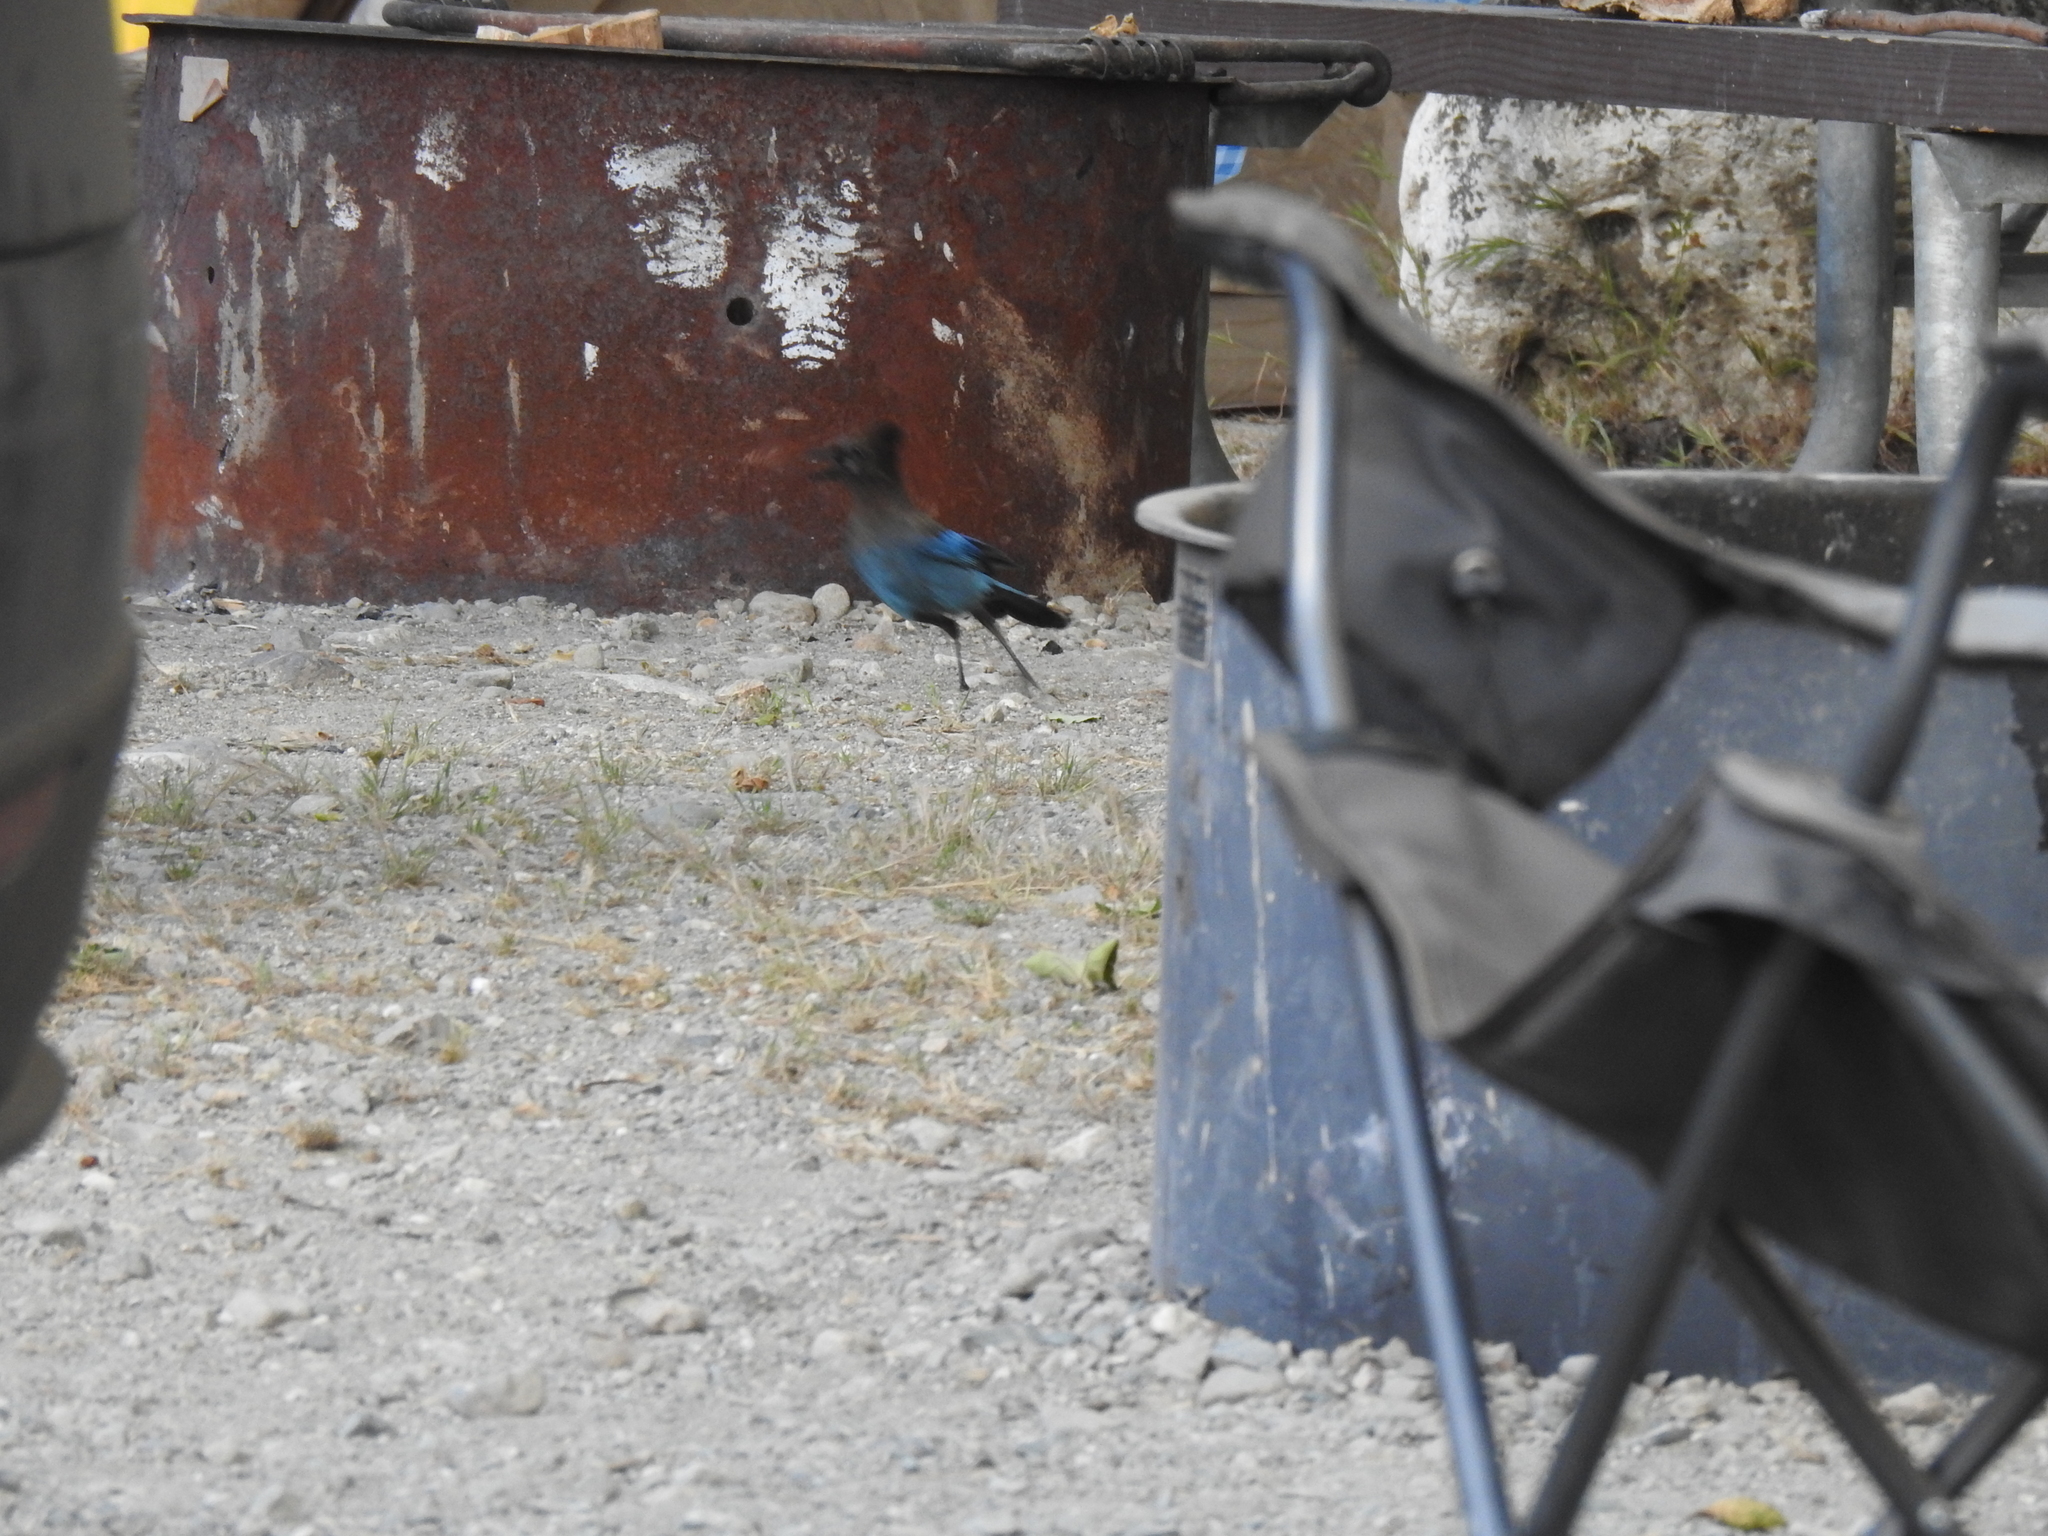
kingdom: Animalia
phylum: Chordata
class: Aves
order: Passeriformes
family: Corvidae
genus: Cyanocitta
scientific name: Cyanocitta stelleri
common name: Steller's jay
